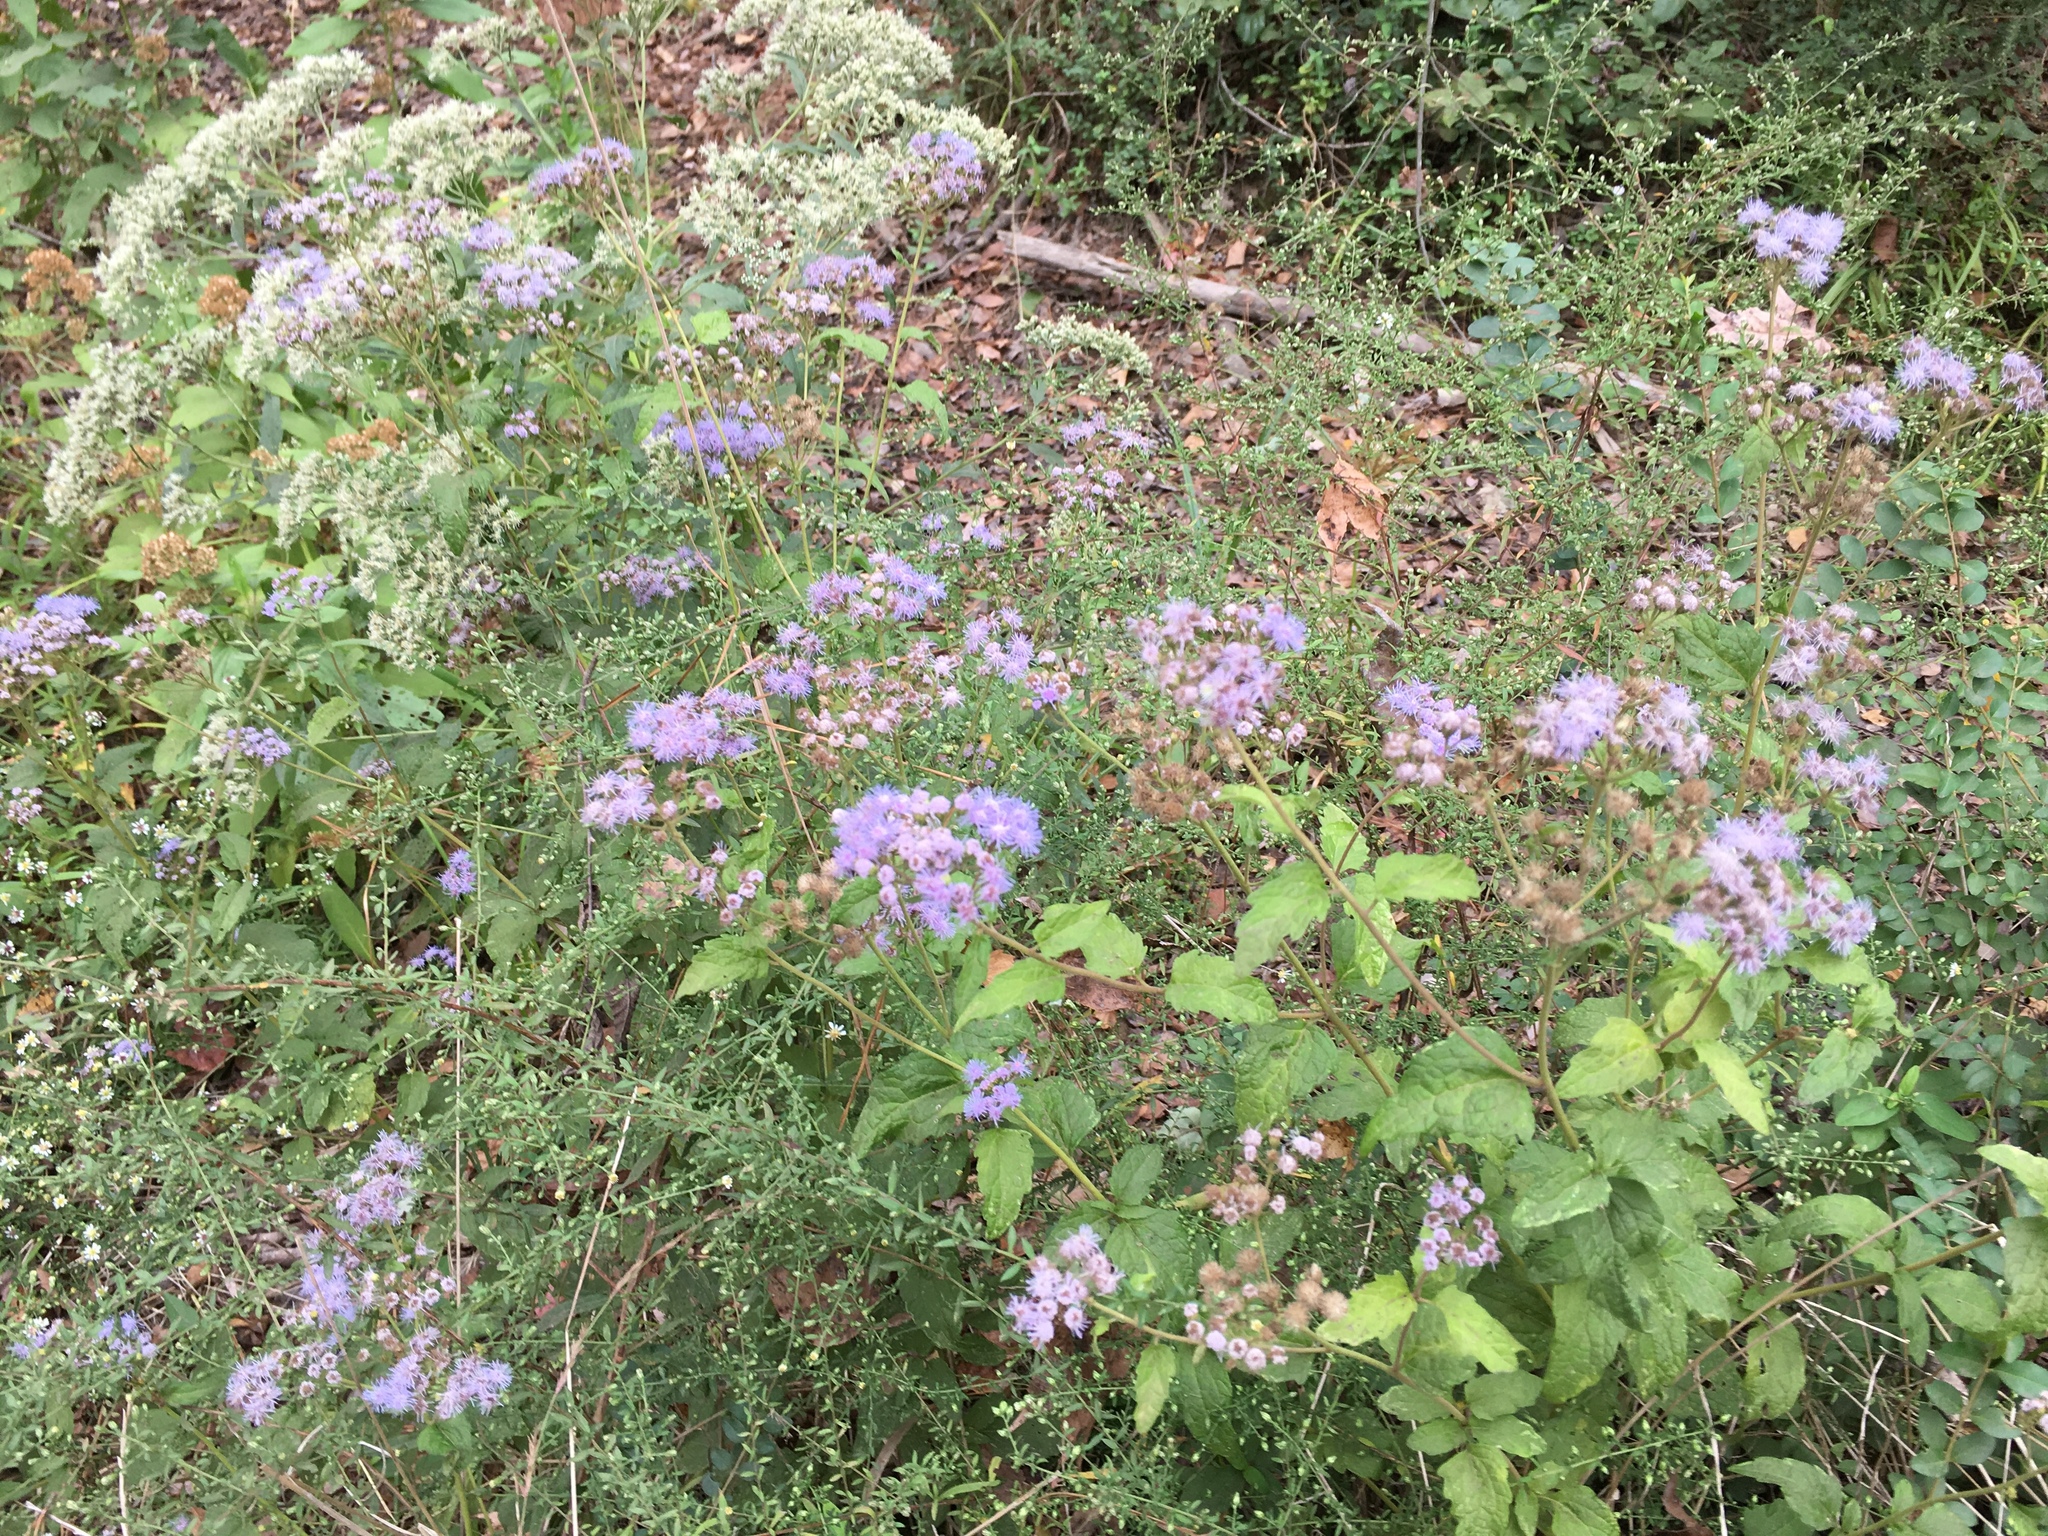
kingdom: Plantae
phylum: Tracheophyta
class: Magnoliopsida
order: Asterales
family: Asteraceae
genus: Conoclinium
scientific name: Conoclinium coelestinum
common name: Blue mistflower
